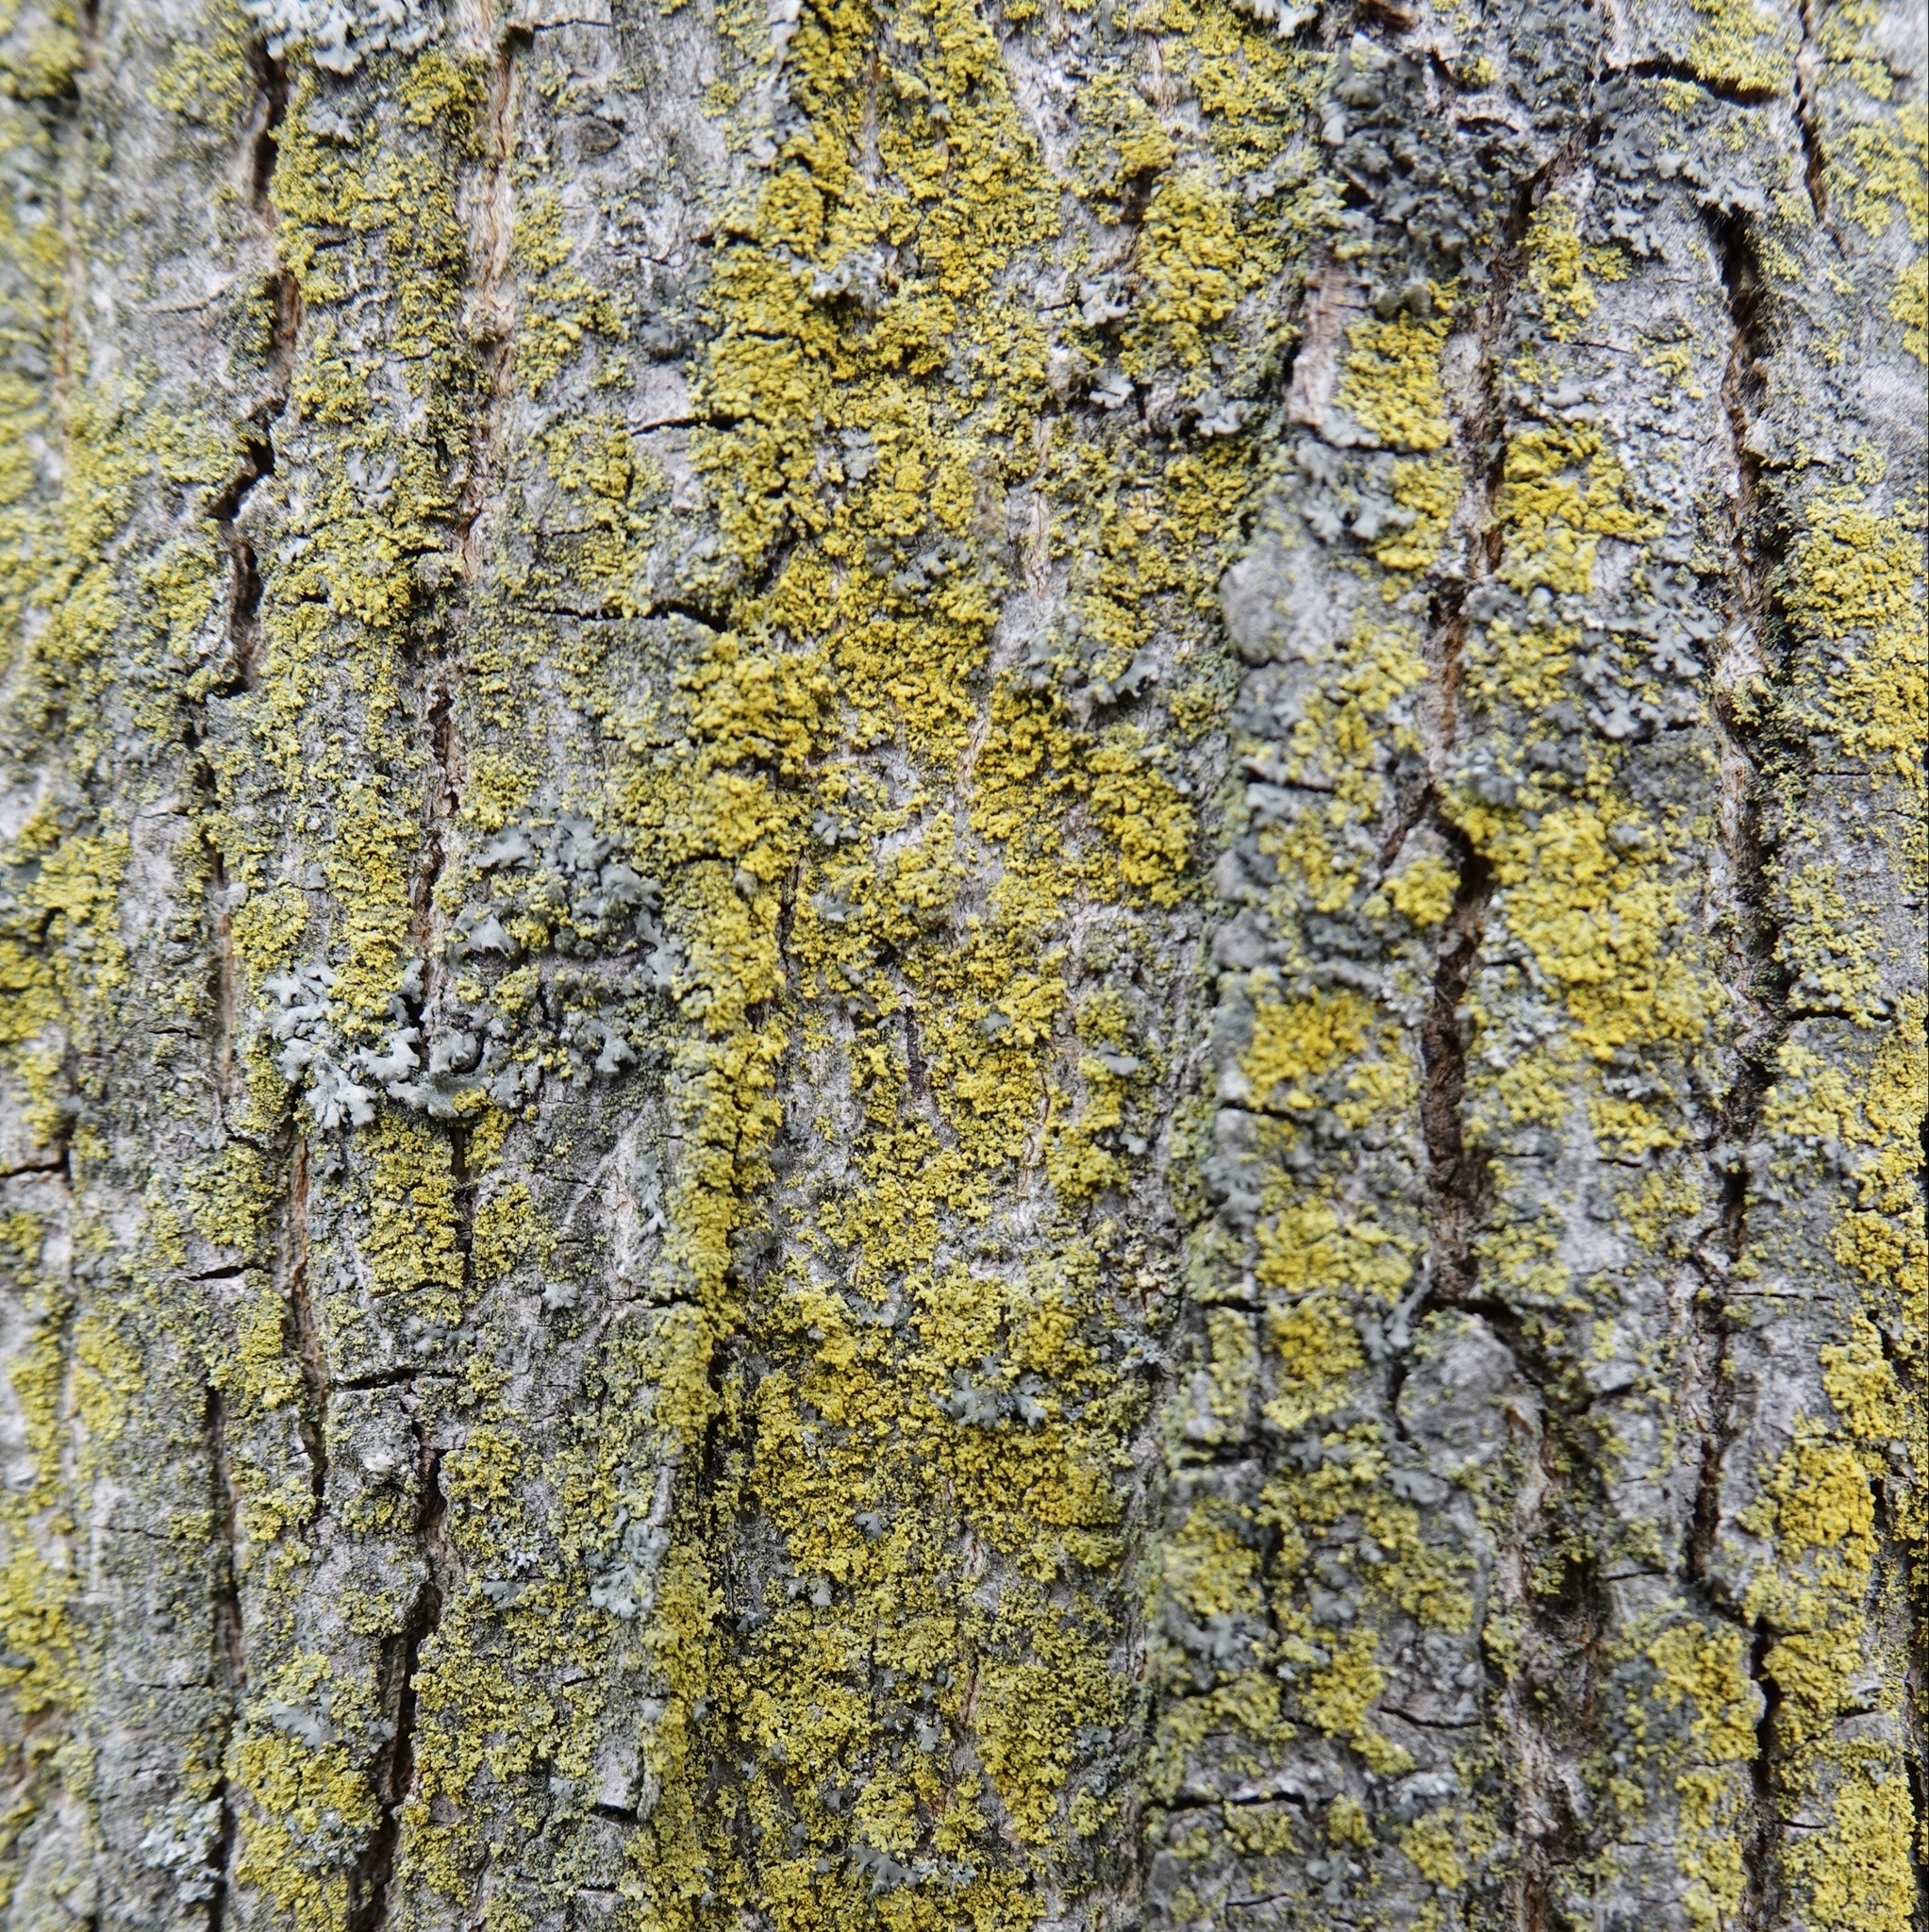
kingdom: Fungi
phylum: Ascomycota
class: Candelariomycetes
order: Candelariales
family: Candelariaceae
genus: Candelaria
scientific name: Candelaria concolor
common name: Candleflame lichen
